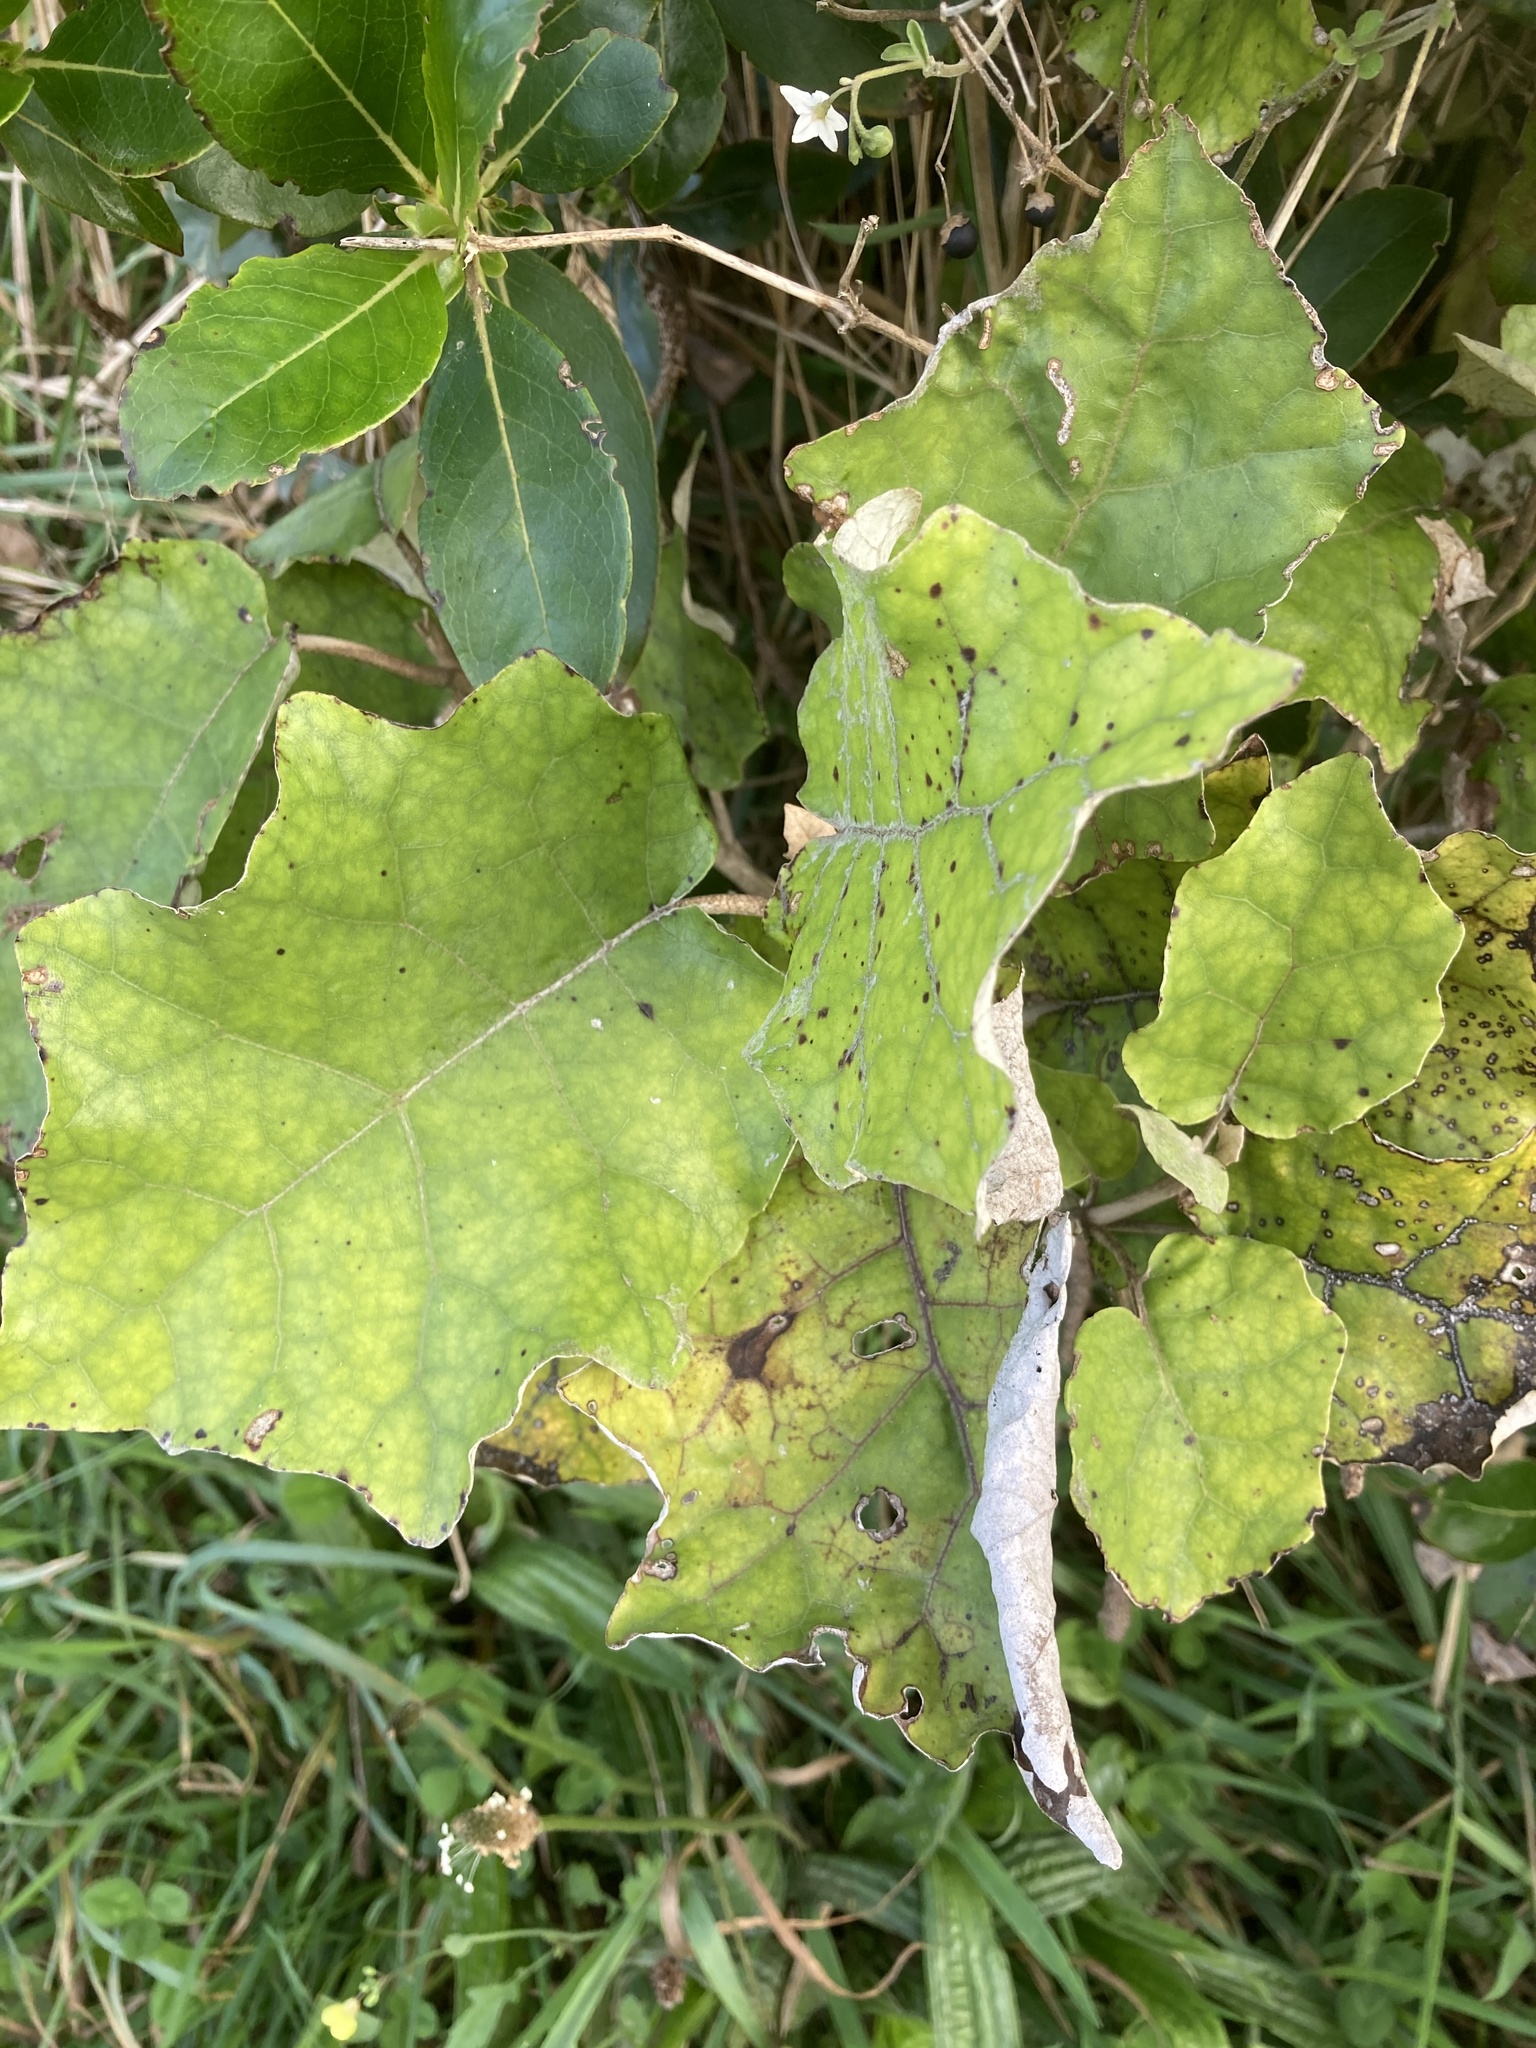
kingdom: Plantae
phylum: Tracheophyta
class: Magnoliopsida
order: Asterales
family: Asteraceae
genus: Brachyglottis
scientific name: Brachyglottis repanda
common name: Hedge ragwort
